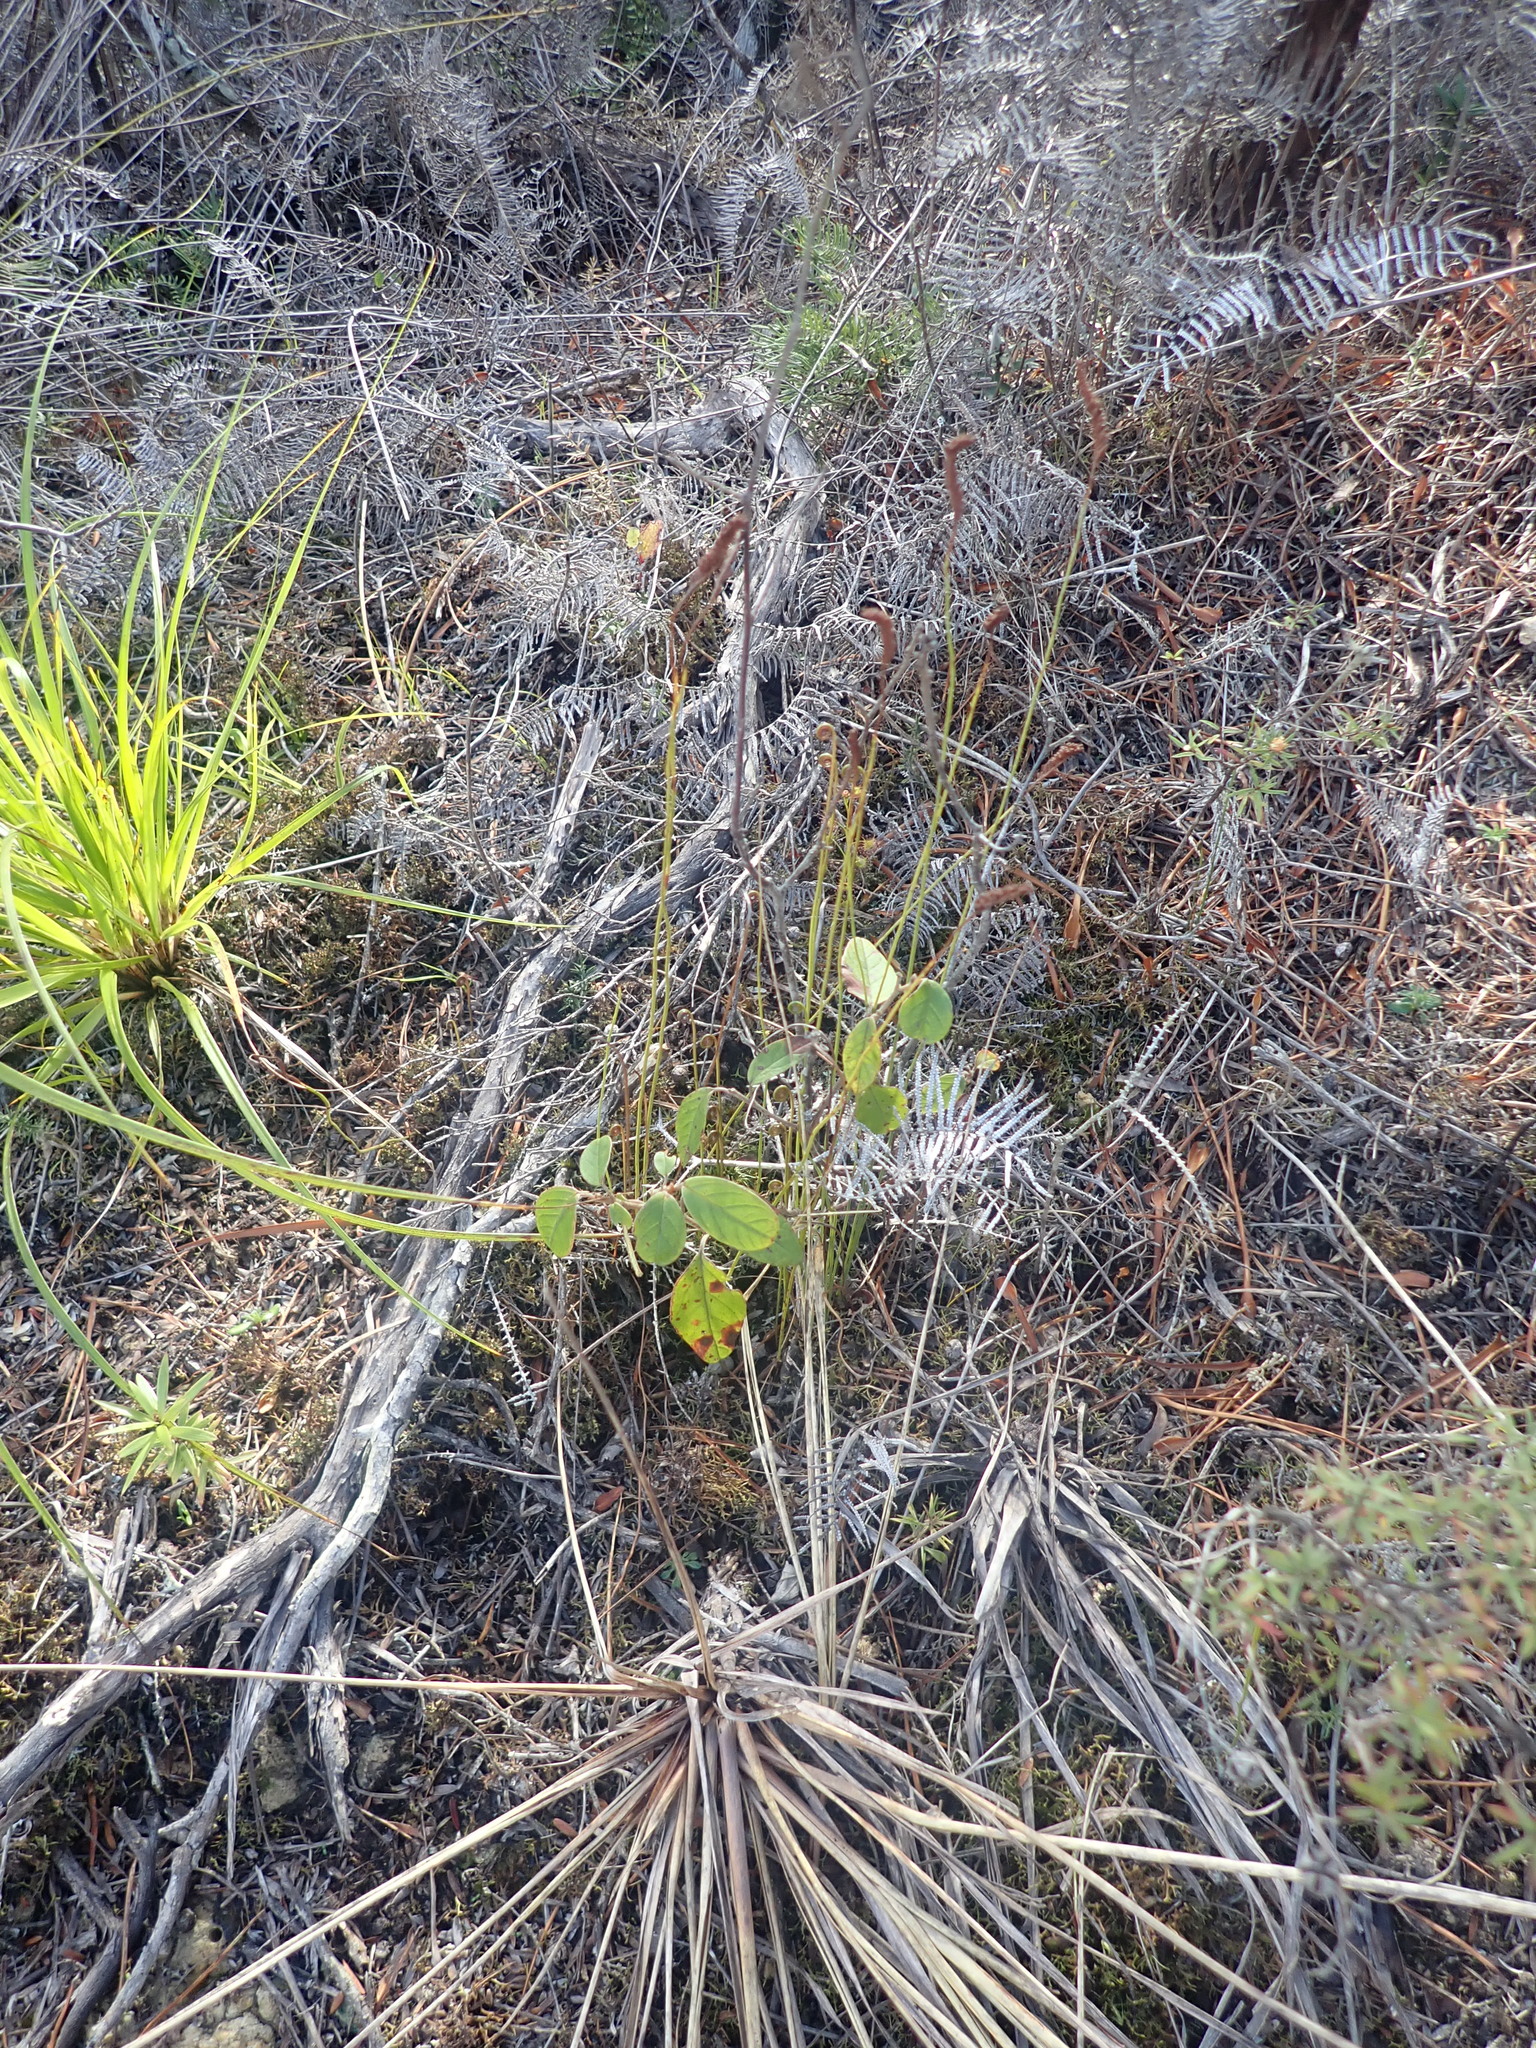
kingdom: Plantae
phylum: Tracheophyta
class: Polypodiopsida
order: Schizaeales
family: Schizaeaceae
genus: Microschizaea
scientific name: Microschizaea fistulosa
